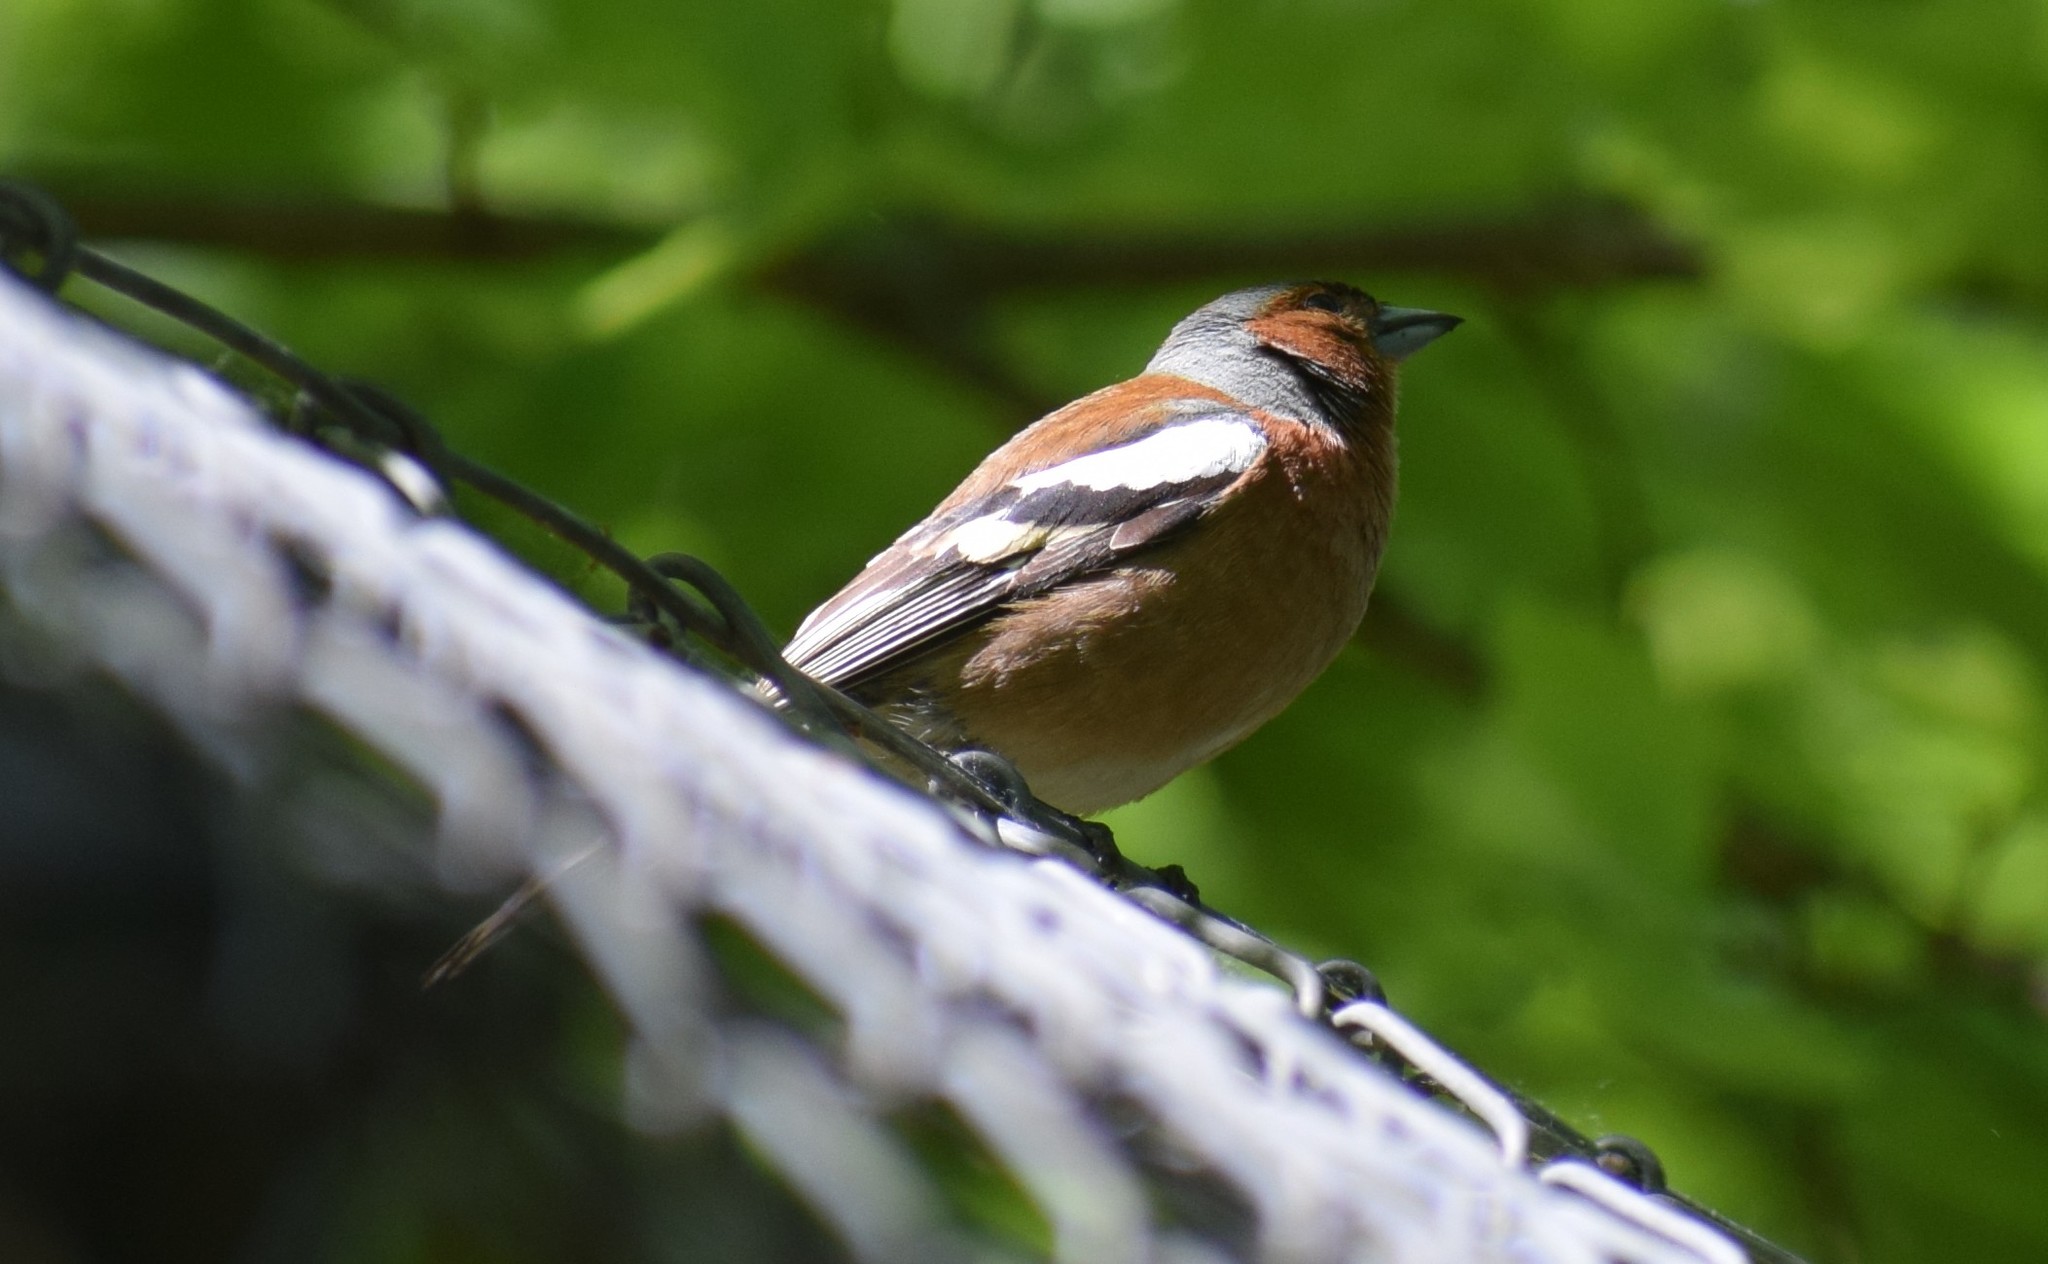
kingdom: Animalia
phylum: Chordata
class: Aves
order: Passeriformes
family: Fringillidae
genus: Fringilla
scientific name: Fringilla coelebs
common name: Common chaffinch
